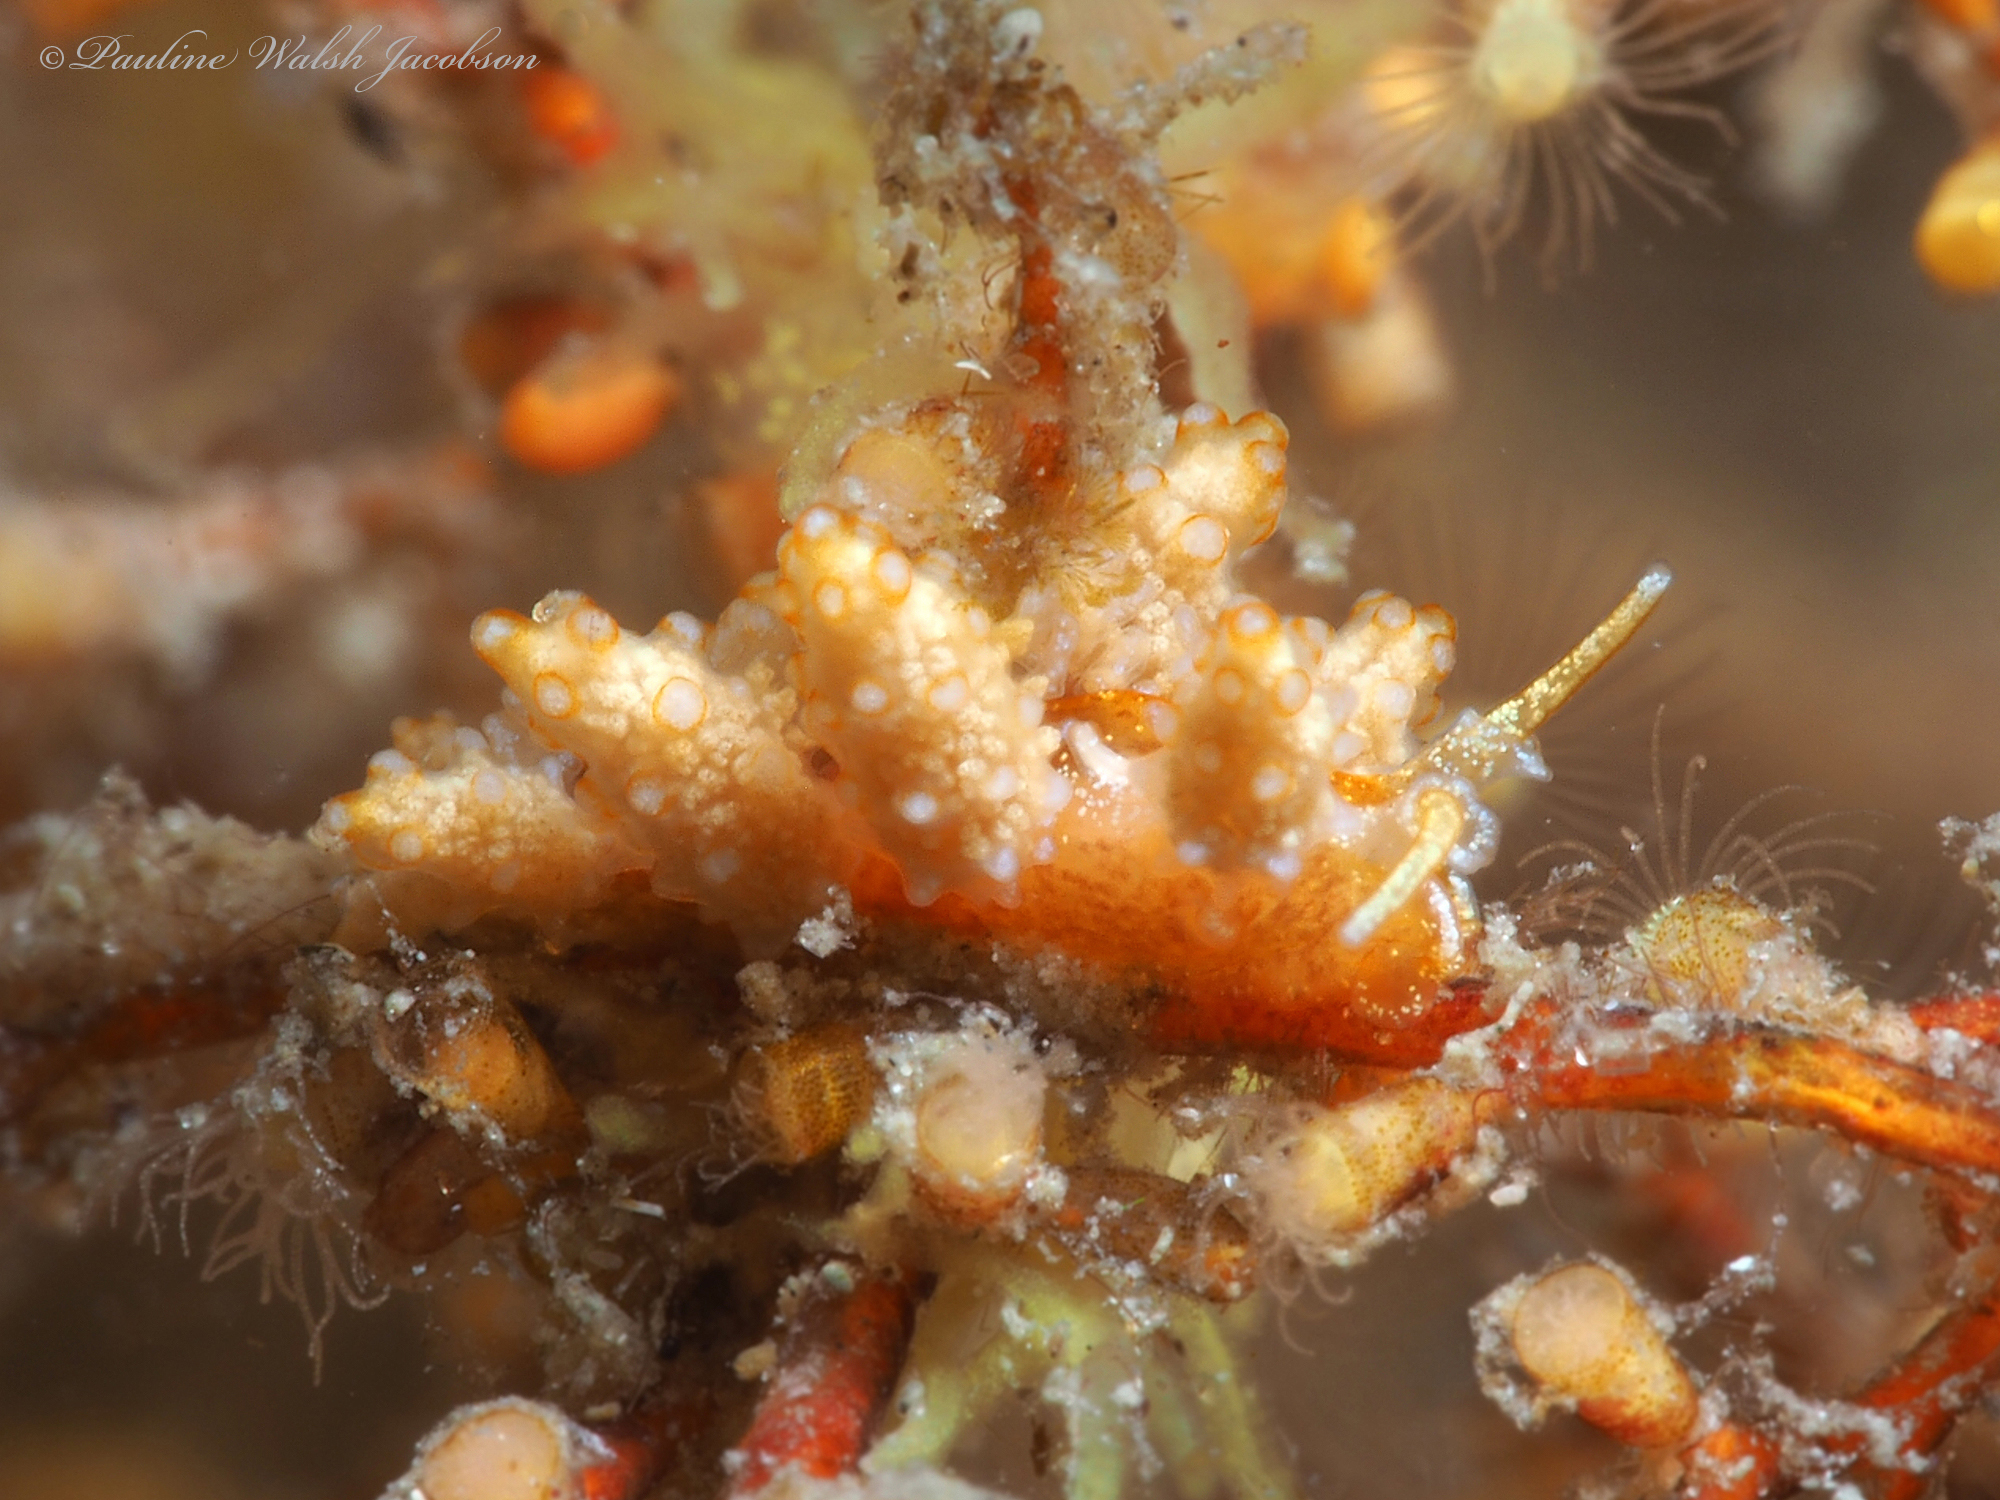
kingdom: Animalia
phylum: Mollusca
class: Gastropoda
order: Nudibranchia
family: Dotidae
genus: Doto
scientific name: Doto torrelavega
